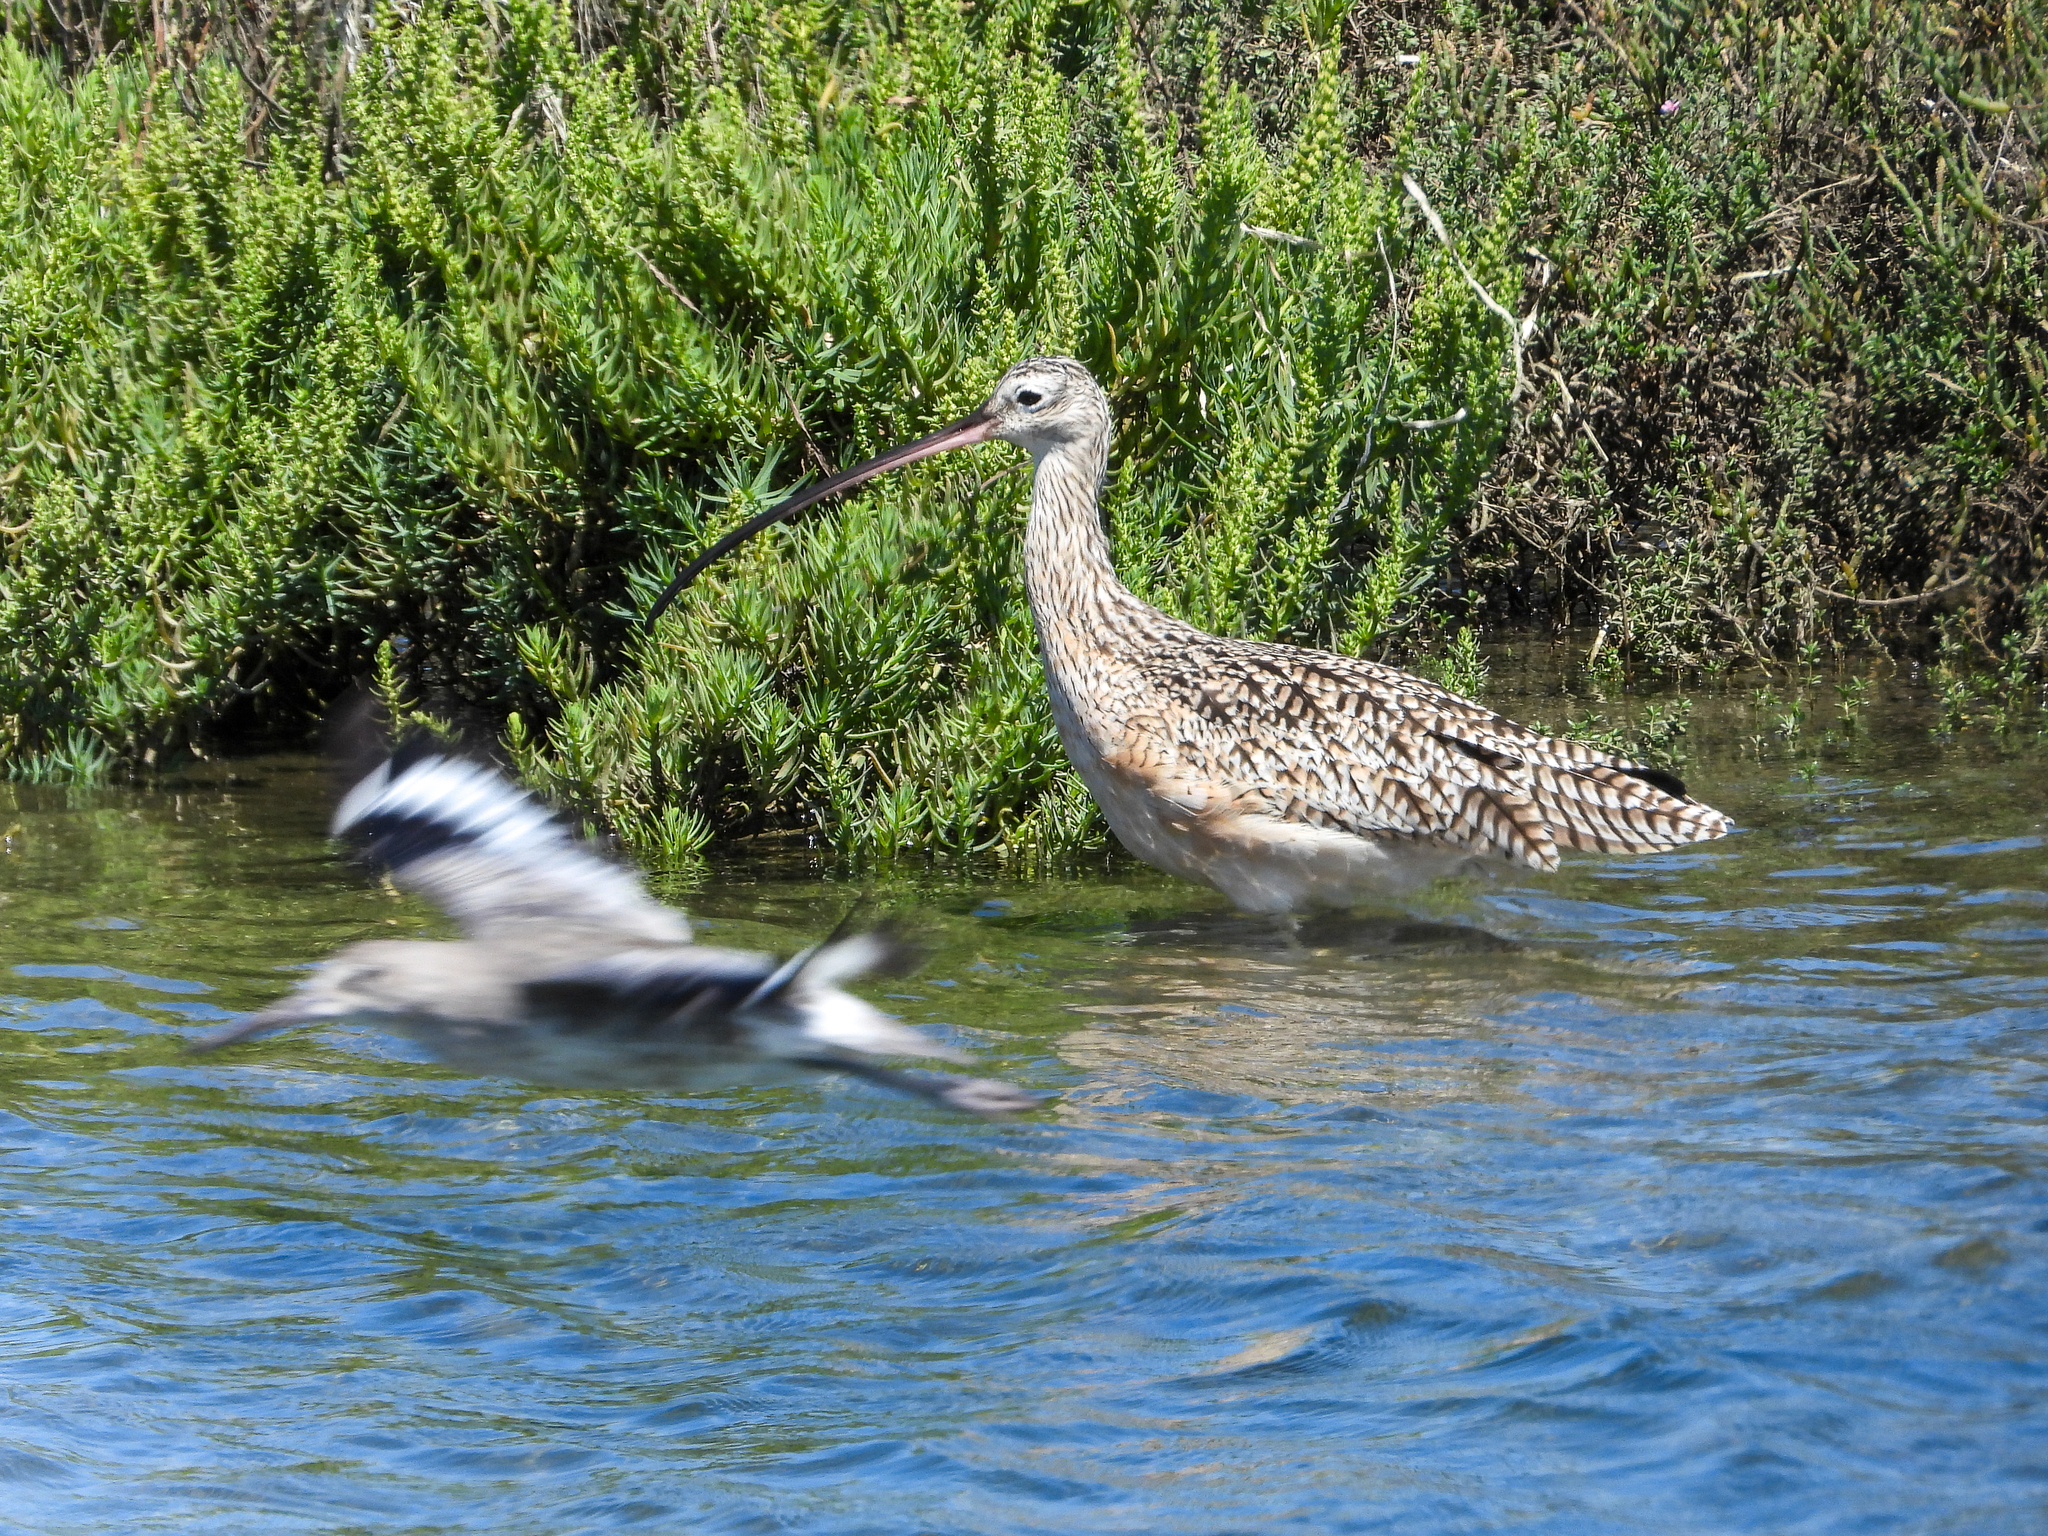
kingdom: Animalia
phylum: Chordata
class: Aves
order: Charadriiformes
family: Scolopacidae
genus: Numenius
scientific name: Numenius americanus
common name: Long-billed curlew
